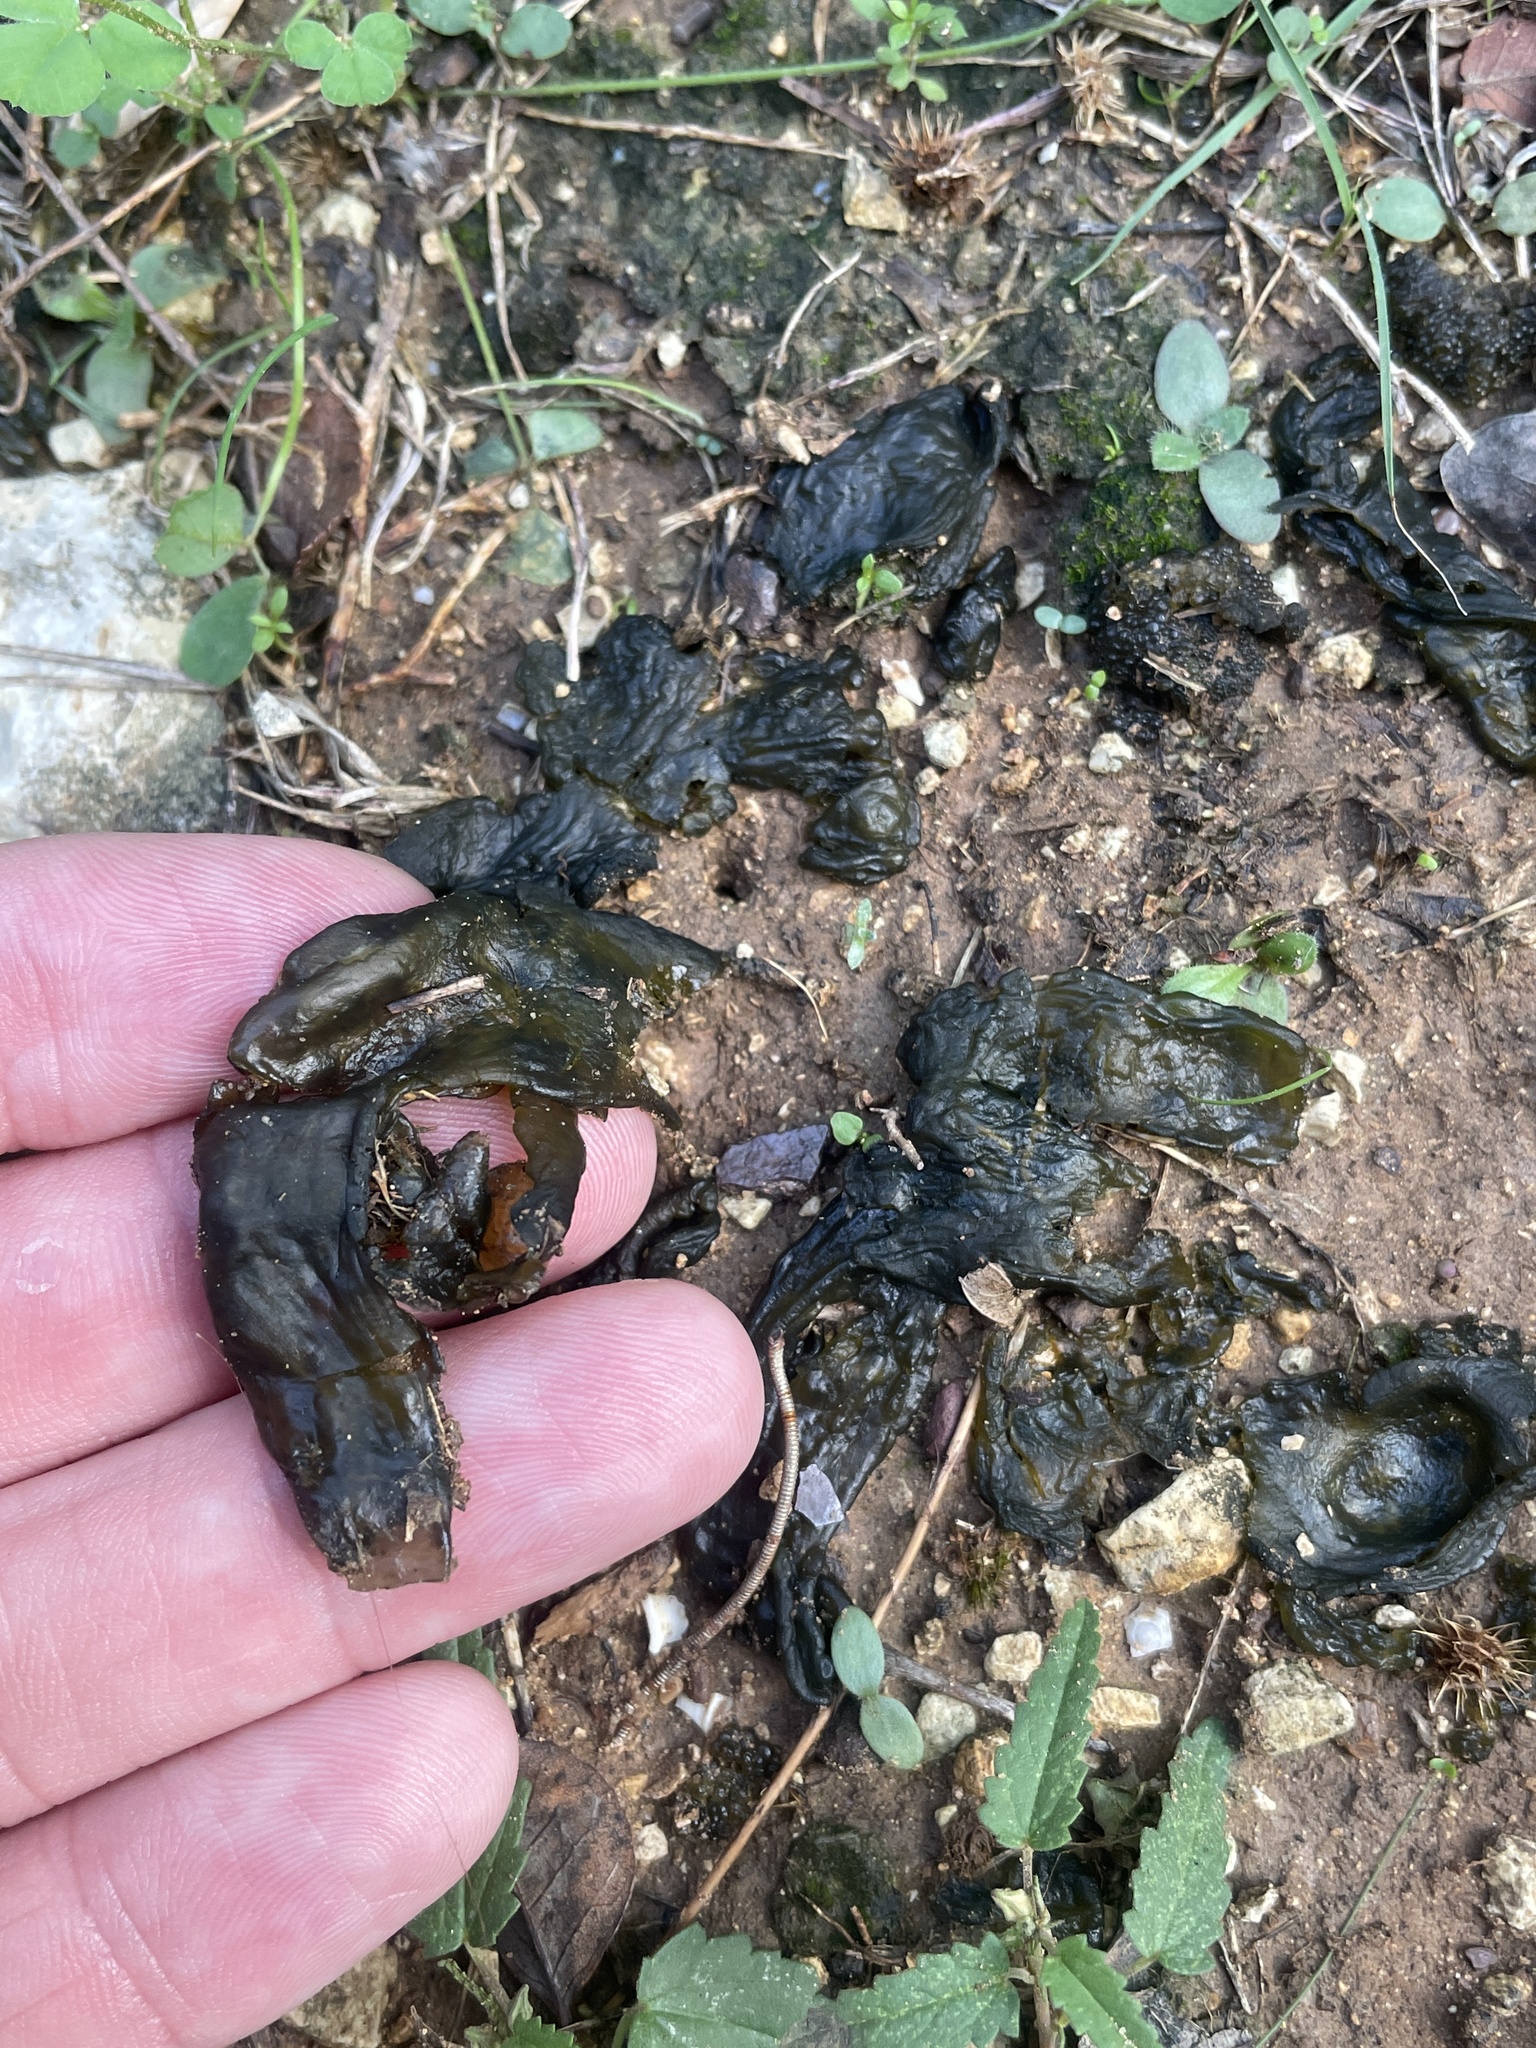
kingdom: Bacteria
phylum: Cyanobacteria
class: Cyanobacteriia
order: Cyanobacteriales
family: Nostocaceae
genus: Nostoc
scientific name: Nostoc commune
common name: Star jelly
